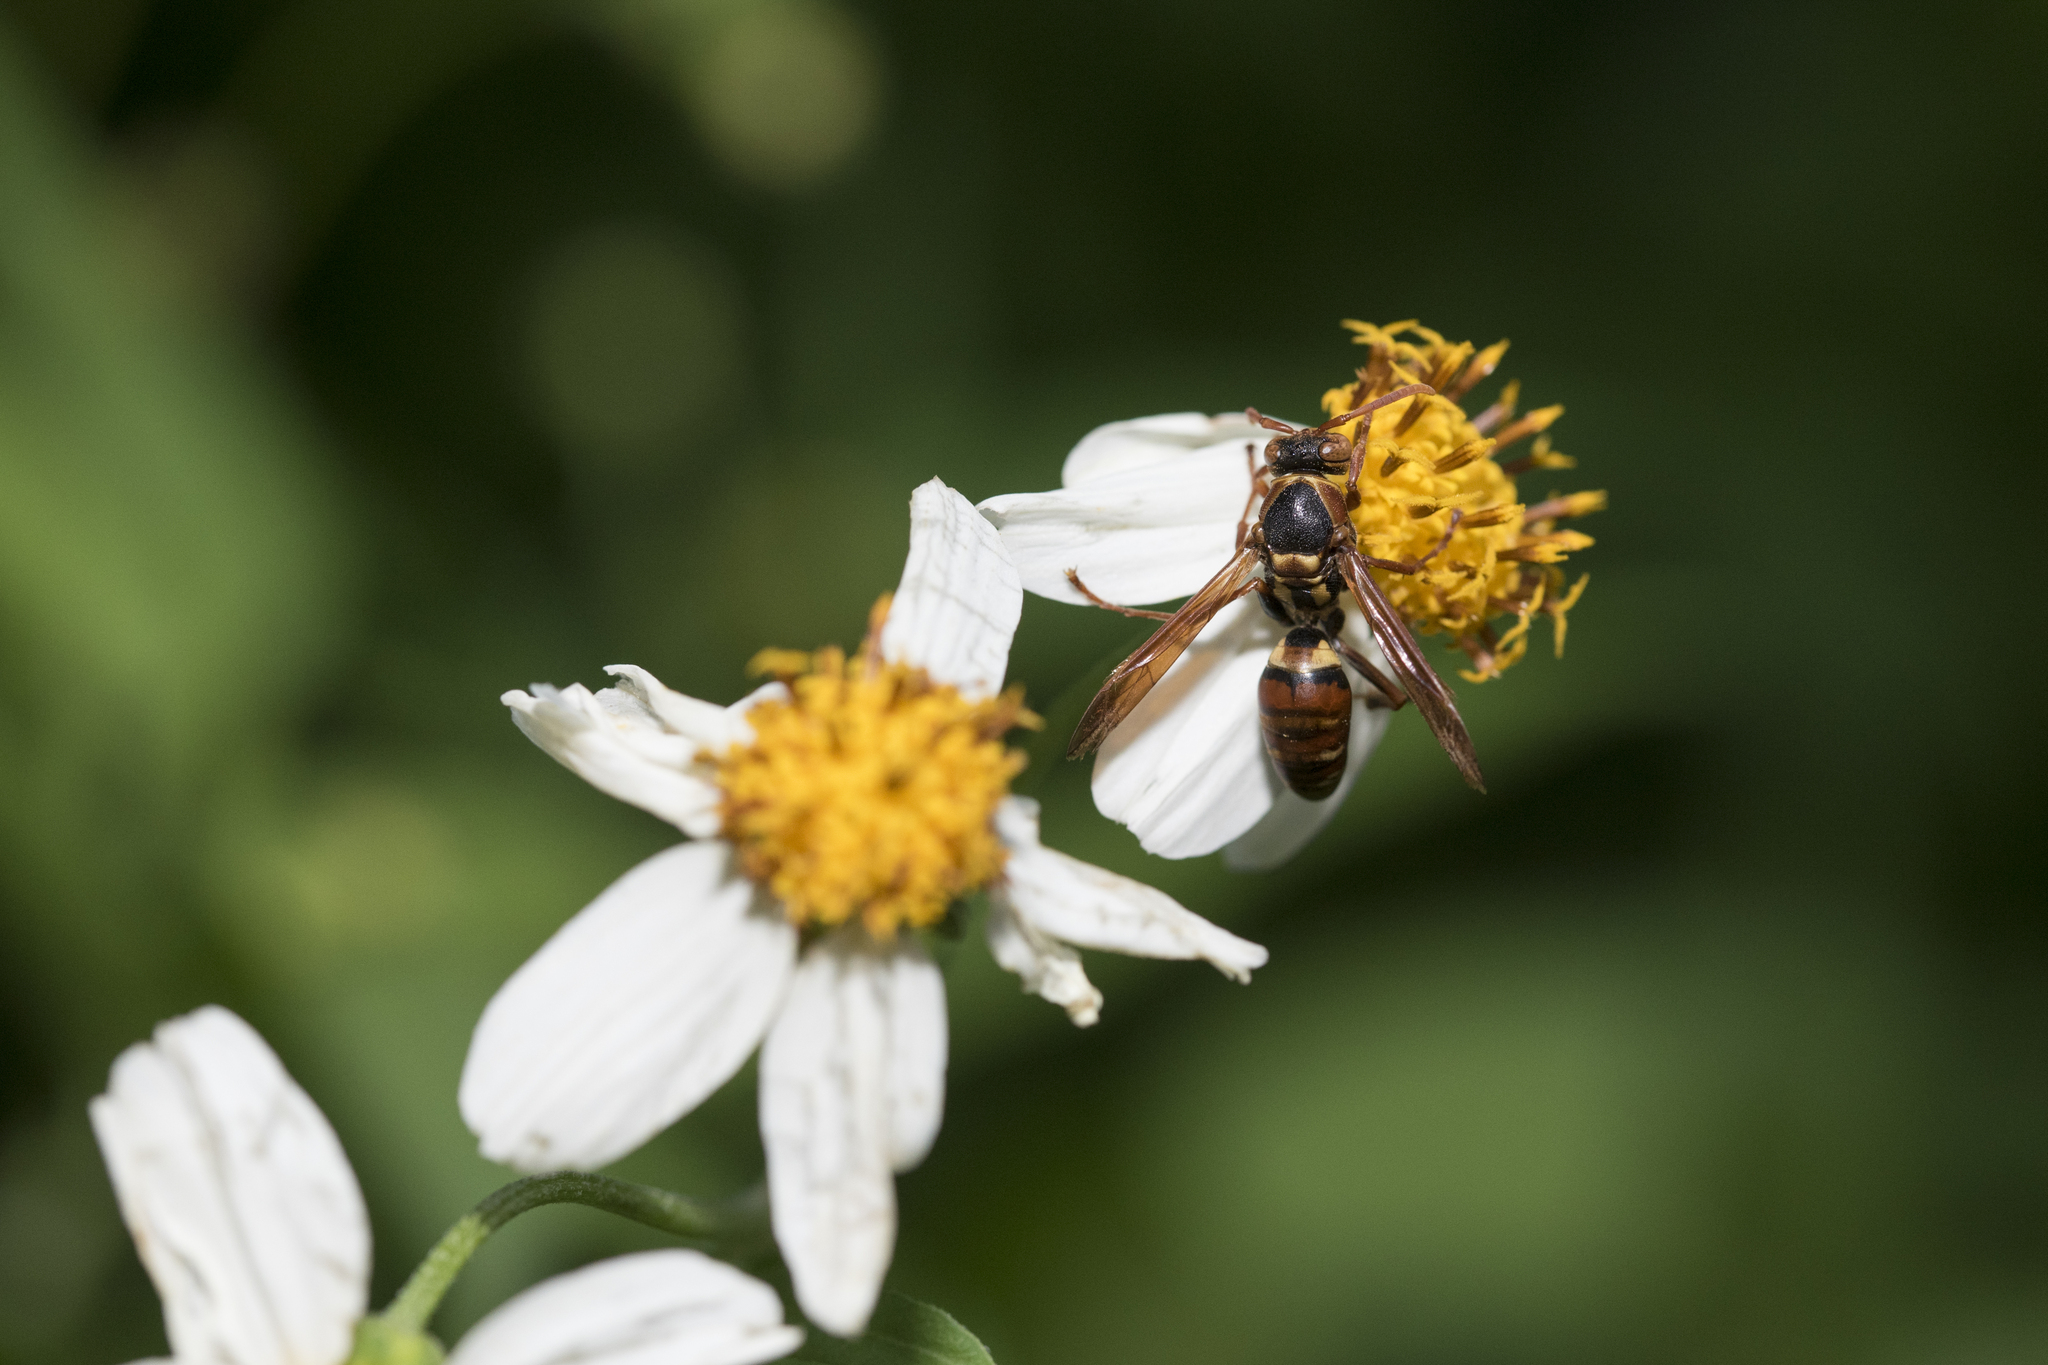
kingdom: Animalia
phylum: Arthropoda
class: Insecta
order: Hymenoptera
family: Eumenidae
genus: Polistes
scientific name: Polistes takasagonus
